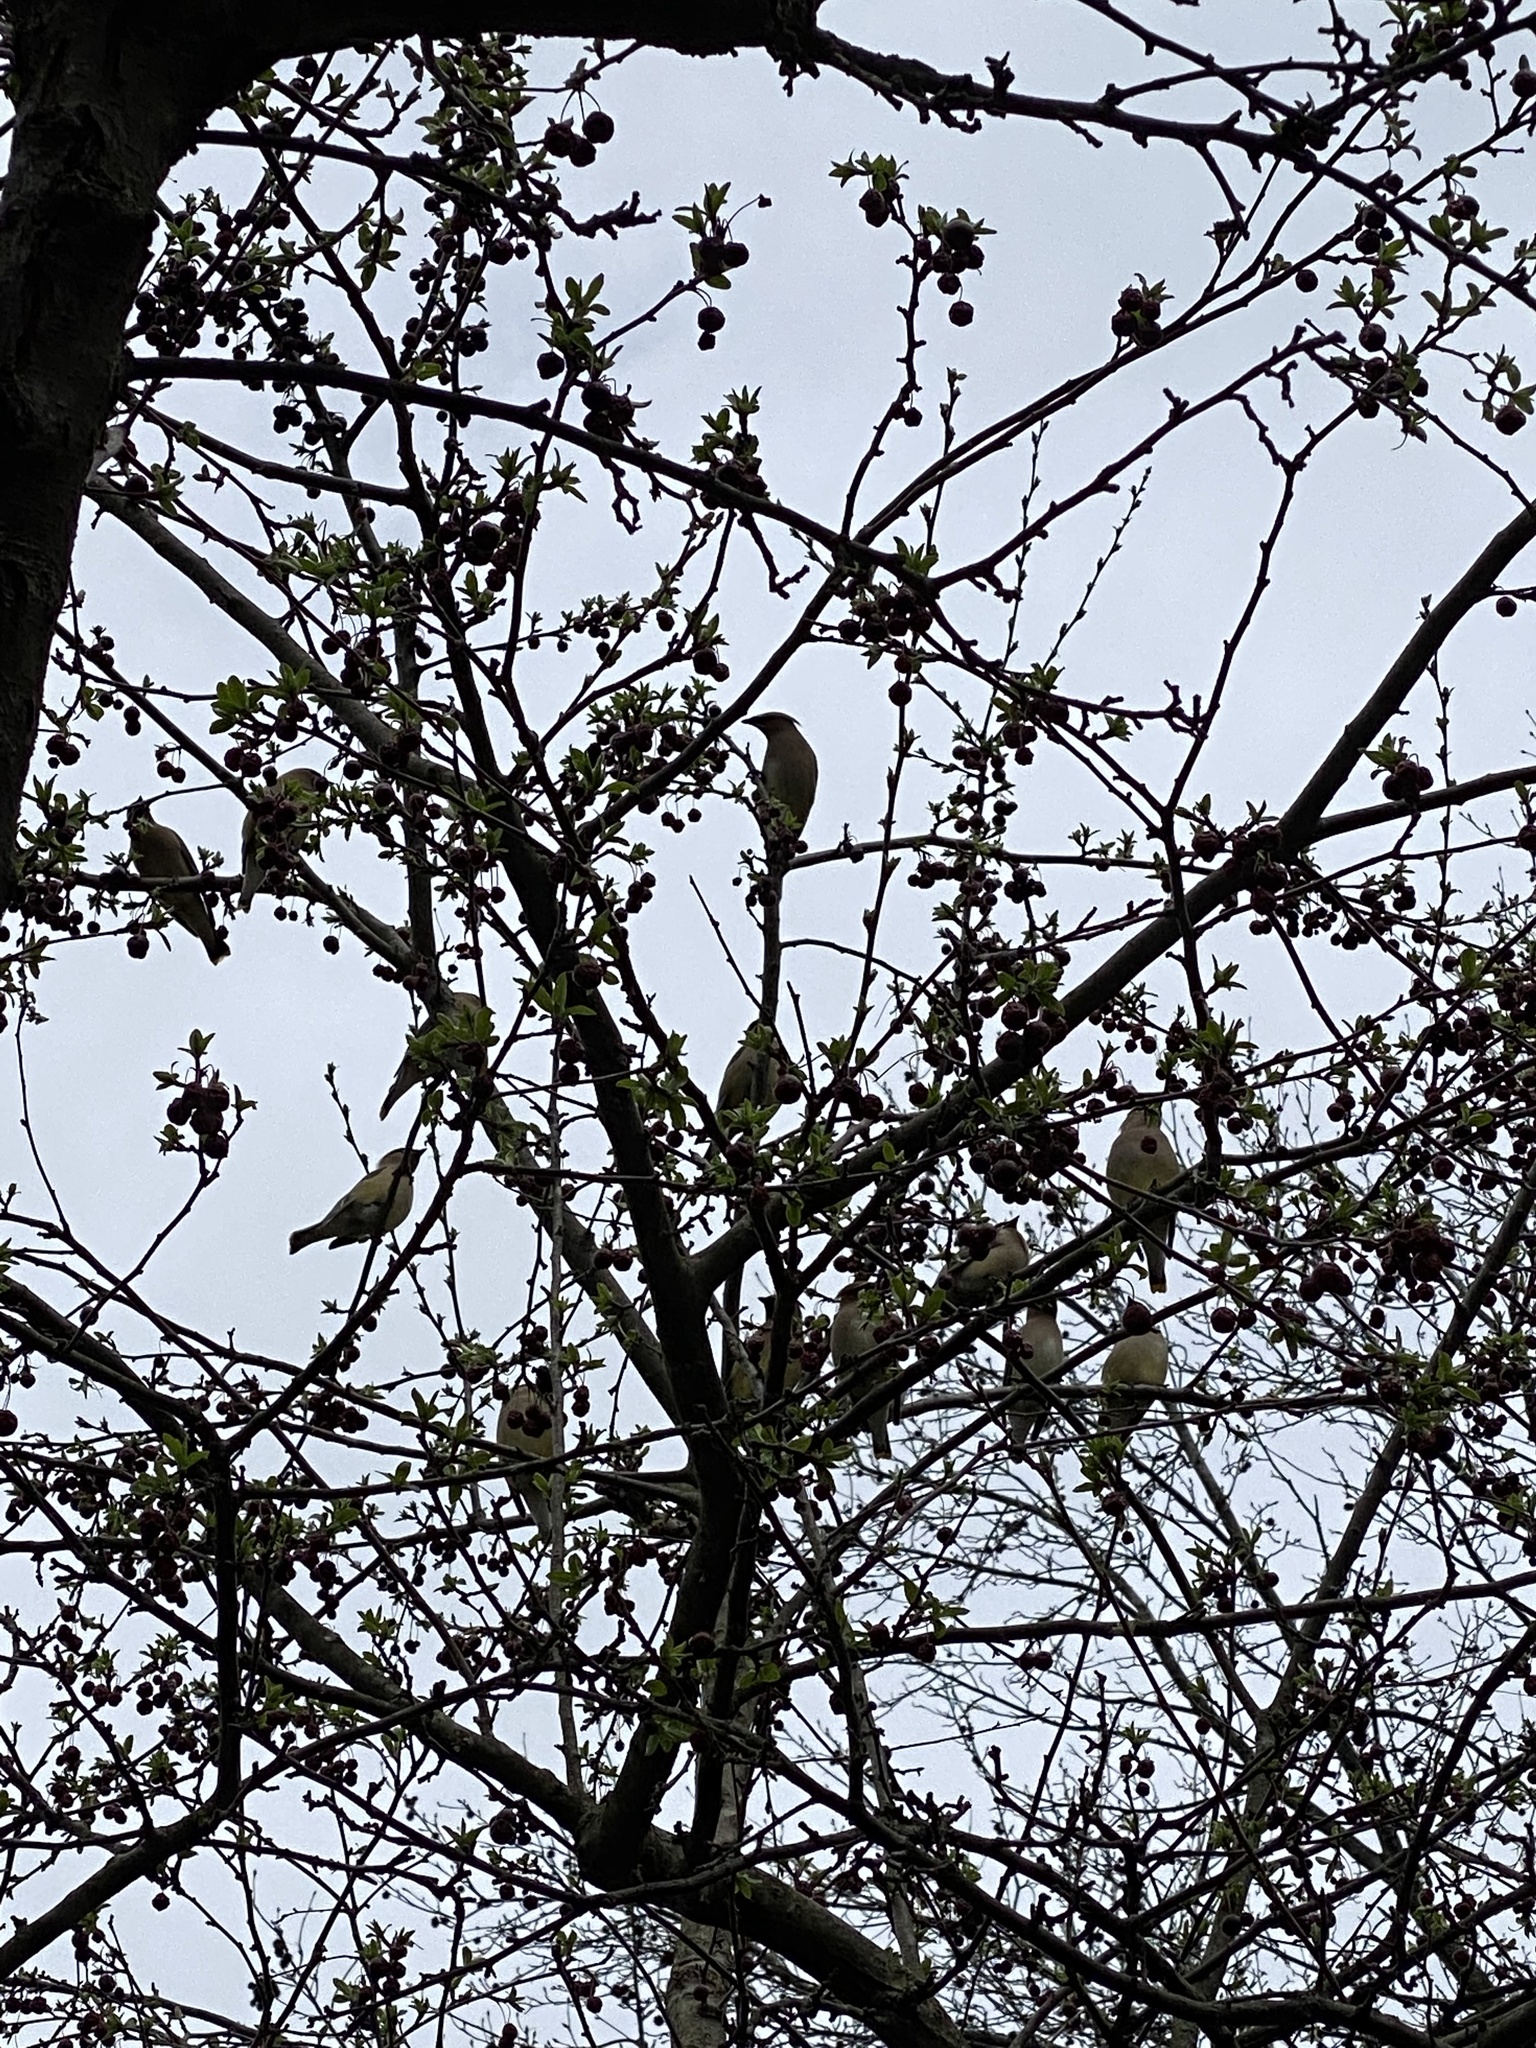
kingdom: Animalia
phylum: Chordata
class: Aves
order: Passeriformes
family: Bombycillidae
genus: Bombycilla
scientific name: Bombycilla cedrorum
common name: Cedar waxwing
